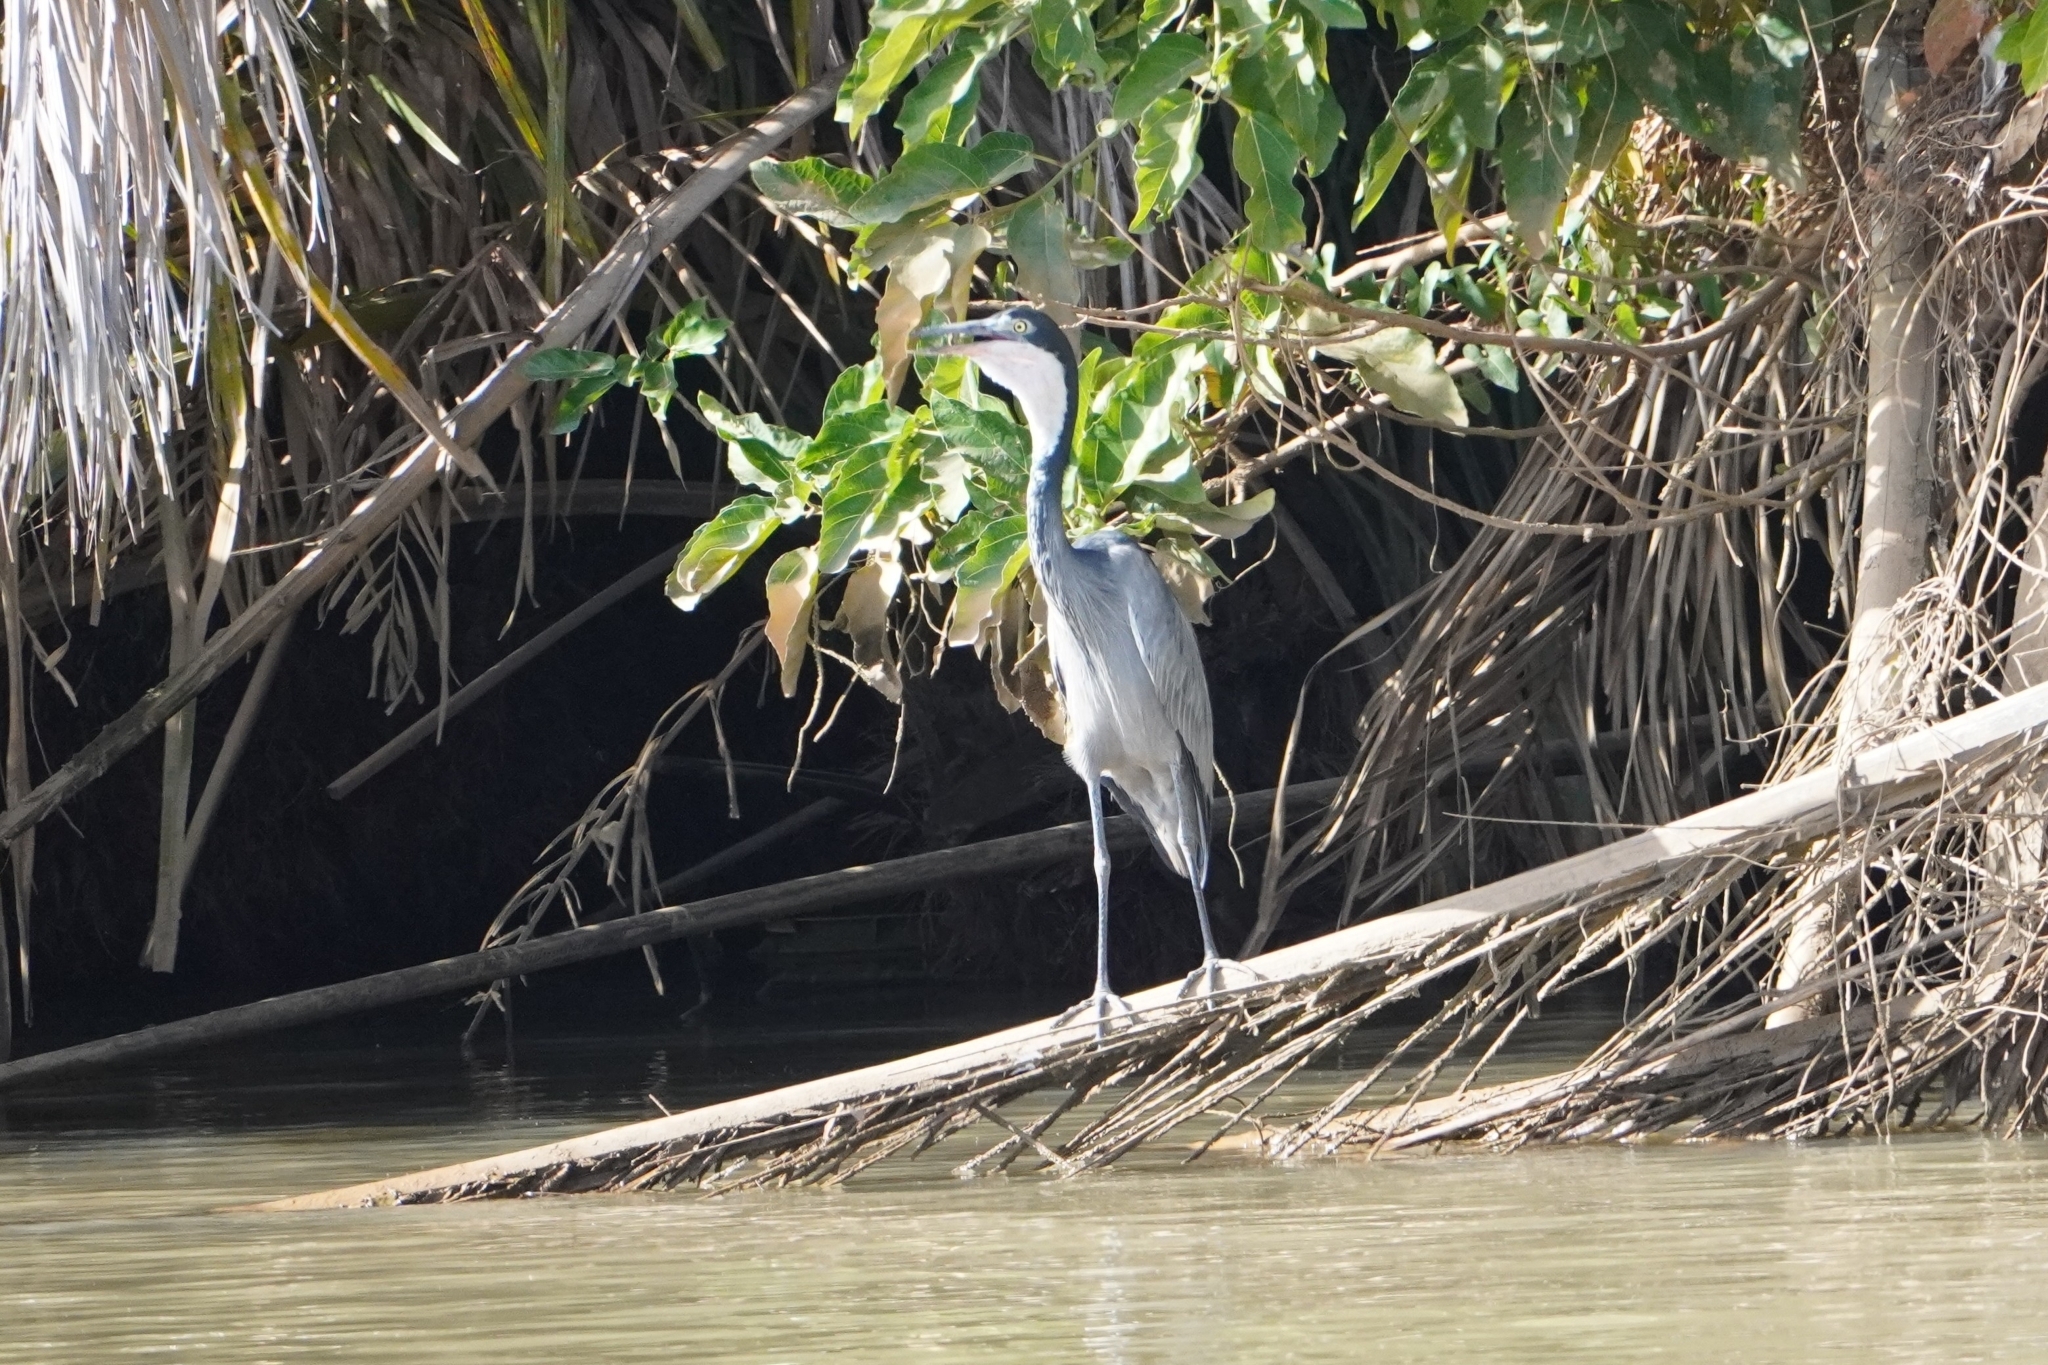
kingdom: Animalia
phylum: Chordata
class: Aves
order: Pelecaniformes
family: Ardeidae
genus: Ardea
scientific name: Ardea melanocephala
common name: Black-headed heron
